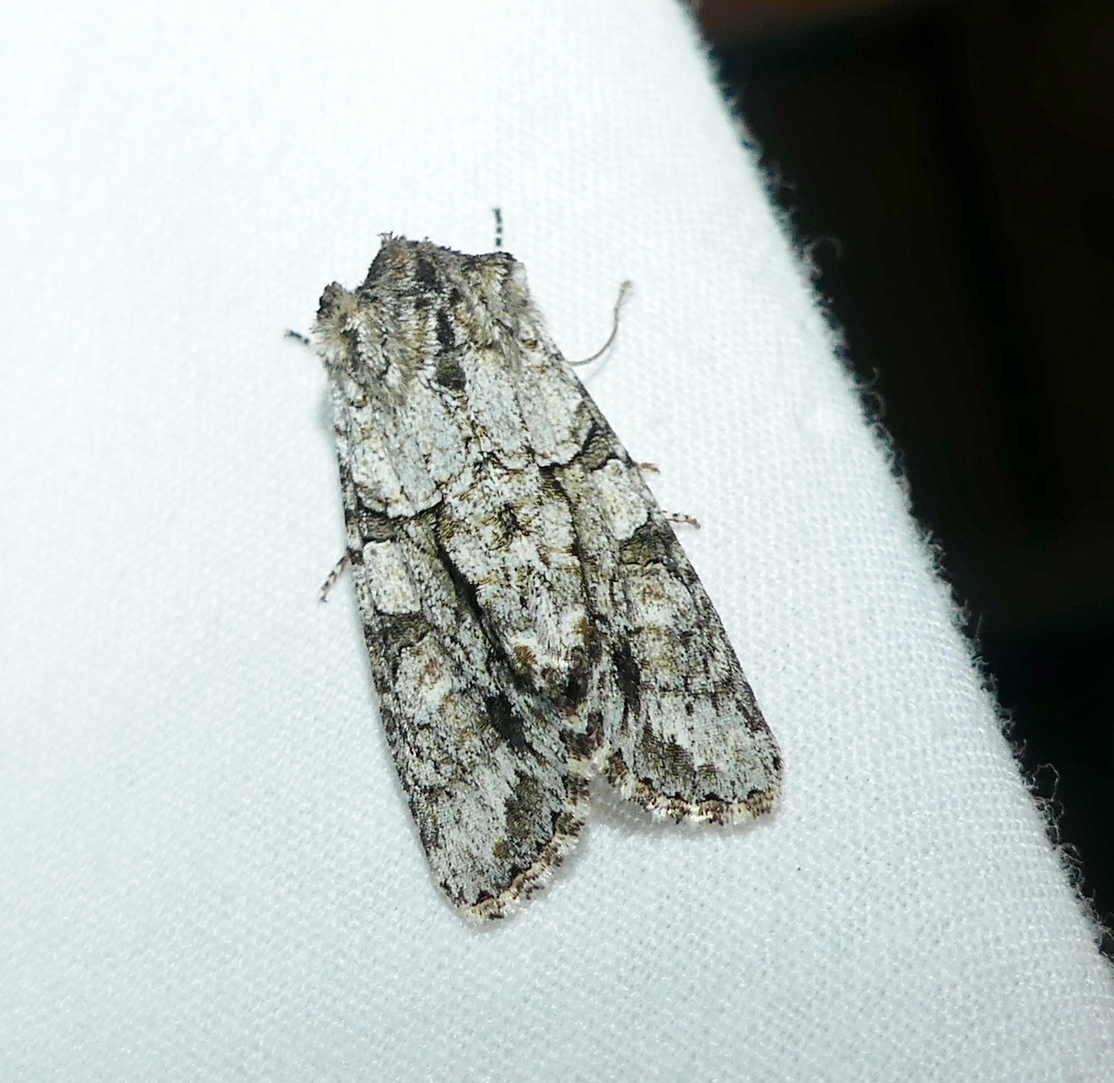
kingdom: Animalia
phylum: Arthropoda
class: Insecta
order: Lepidoptera
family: Noctuidae
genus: Achatia
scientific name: Achatia distincta
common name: Distinct quaker
